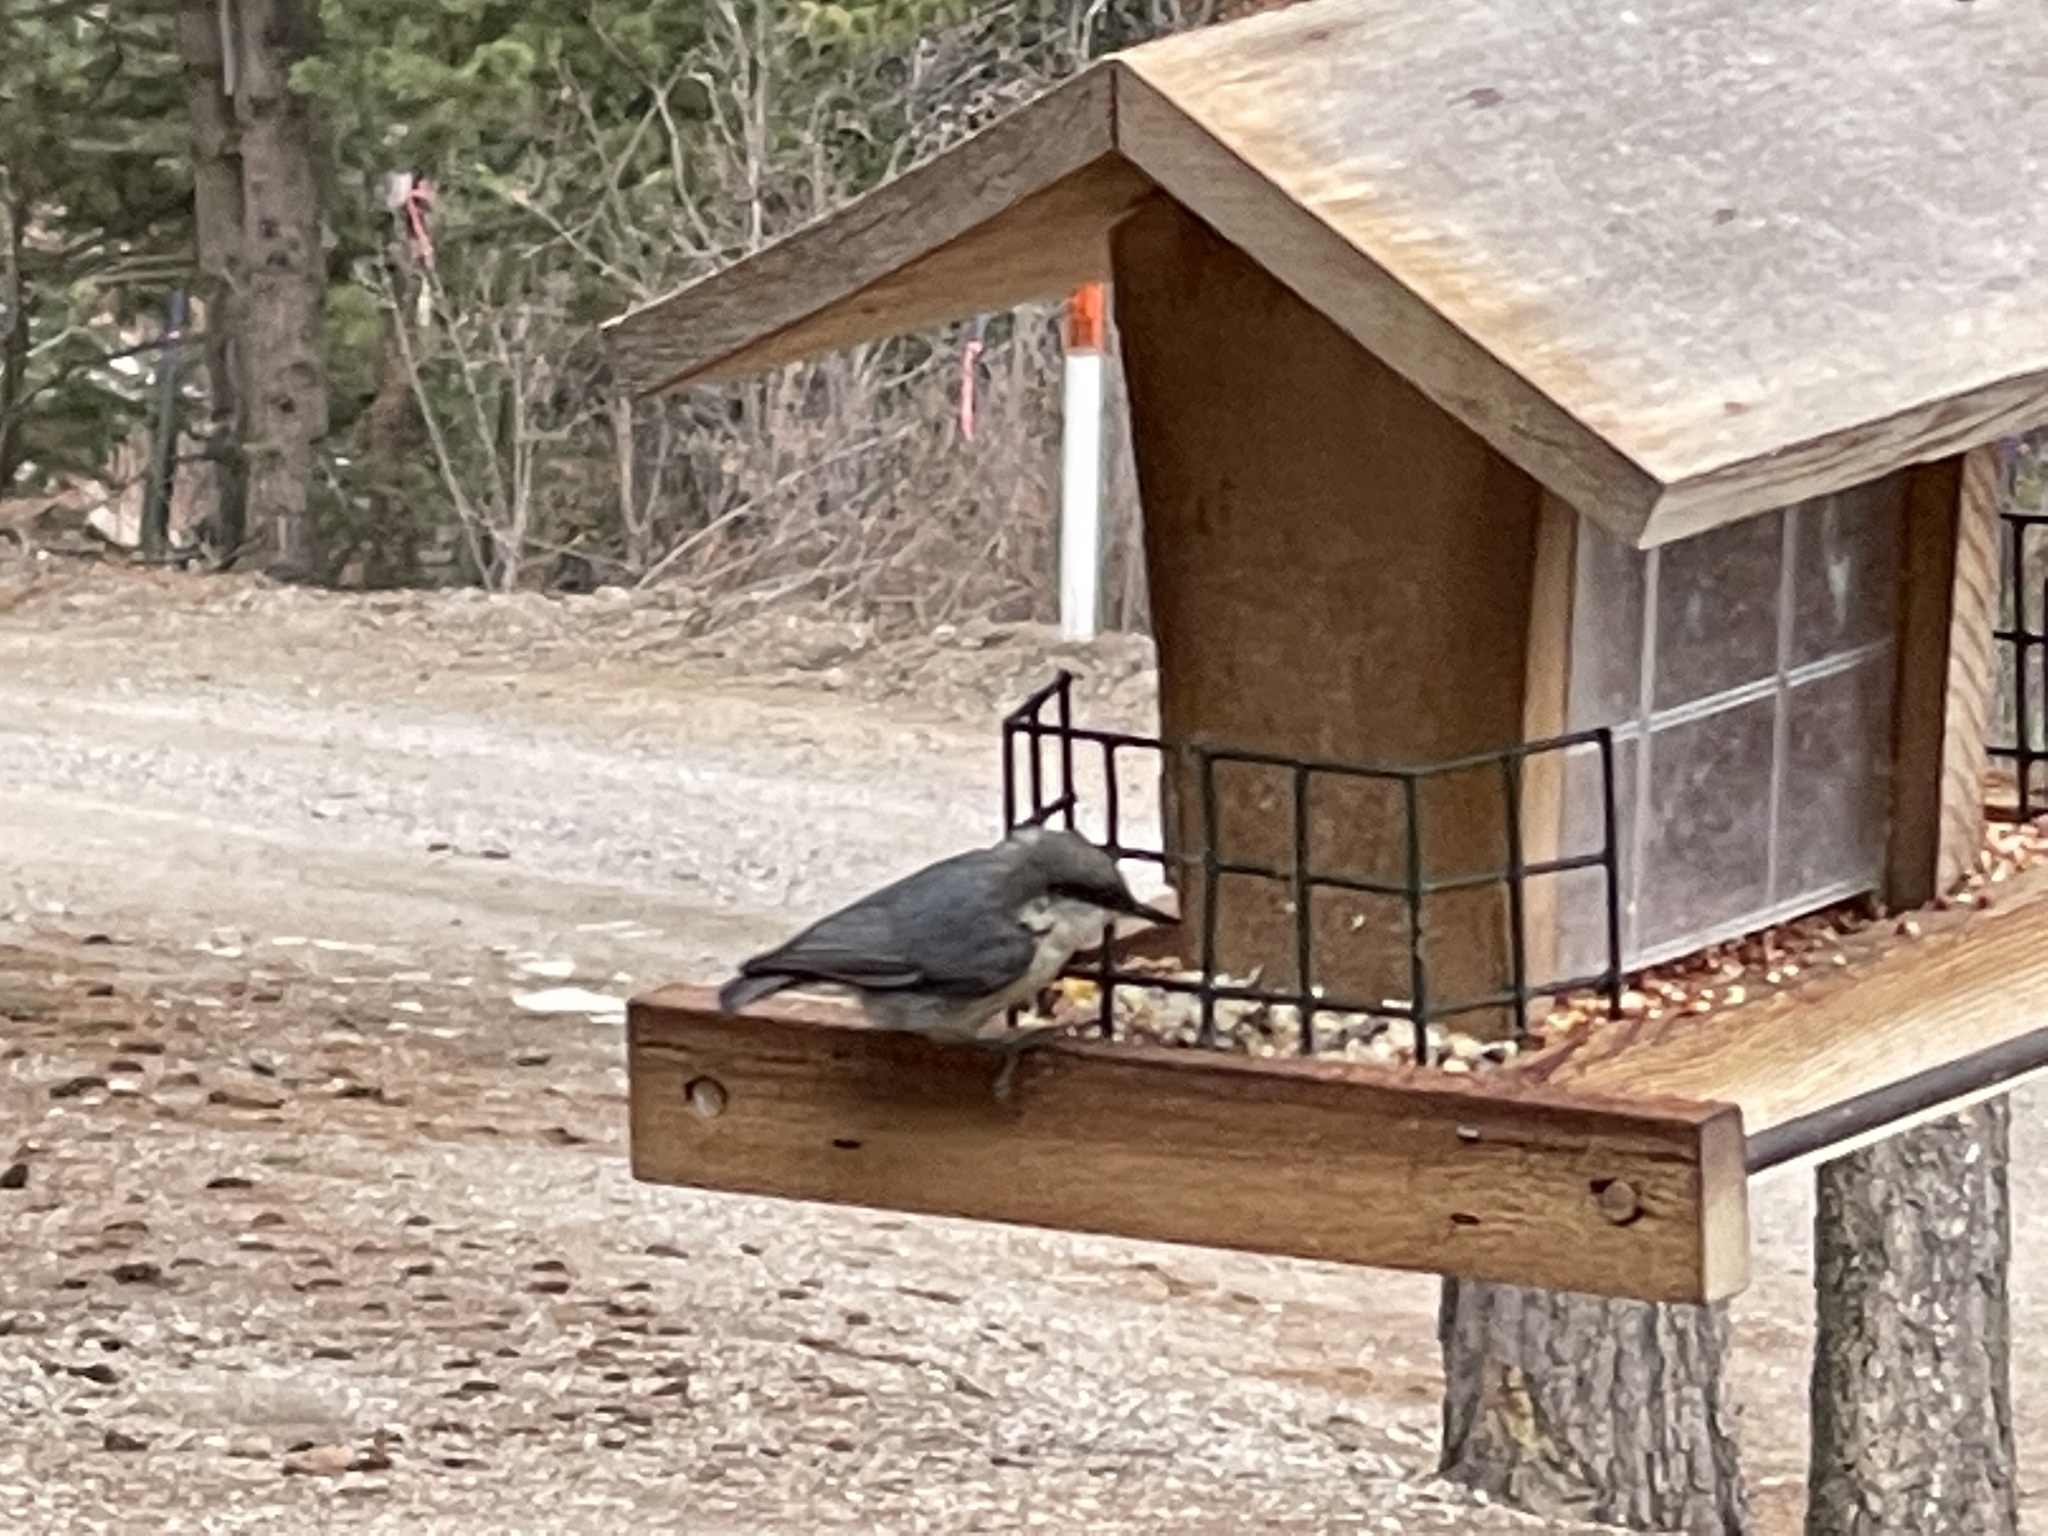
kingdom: Animalia
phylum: Chordata
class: Aves
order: Passeriformes
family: Sittidae
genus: Sitta
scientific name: Sitta pygmaea
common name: Pygmy nuthatch
